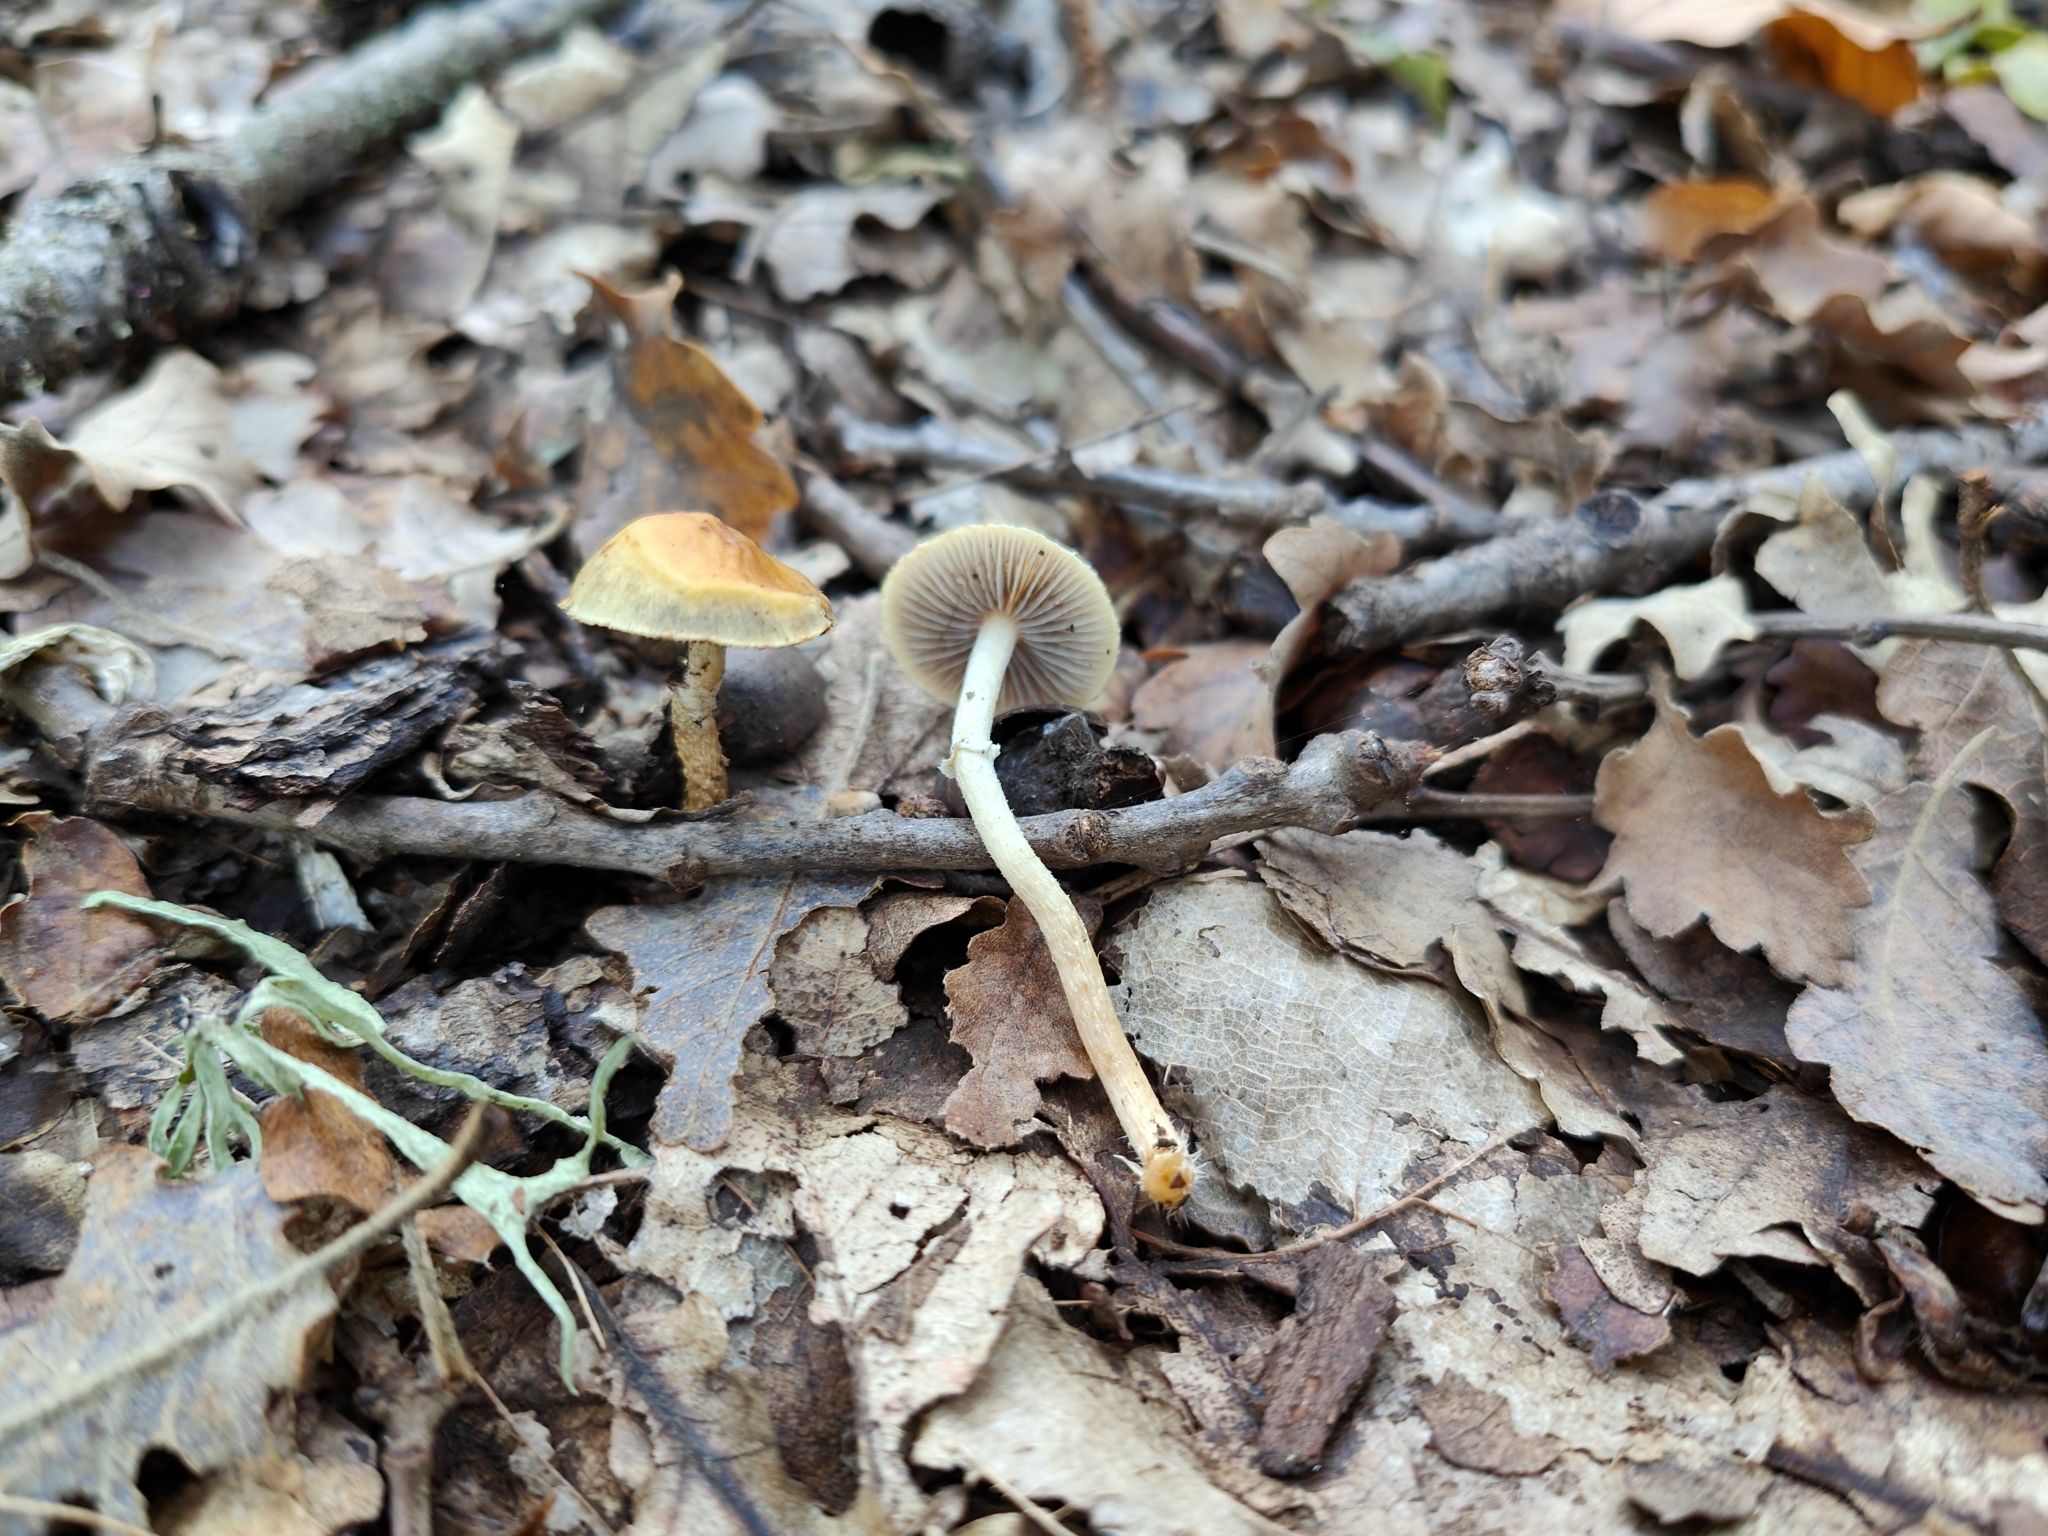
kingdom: Fungi
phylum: Basidiomycota
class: Agaricomycetes
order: Agaricales
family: Strophariaceae
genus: Leratiomyces
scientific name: Leratiomyces squamosus
